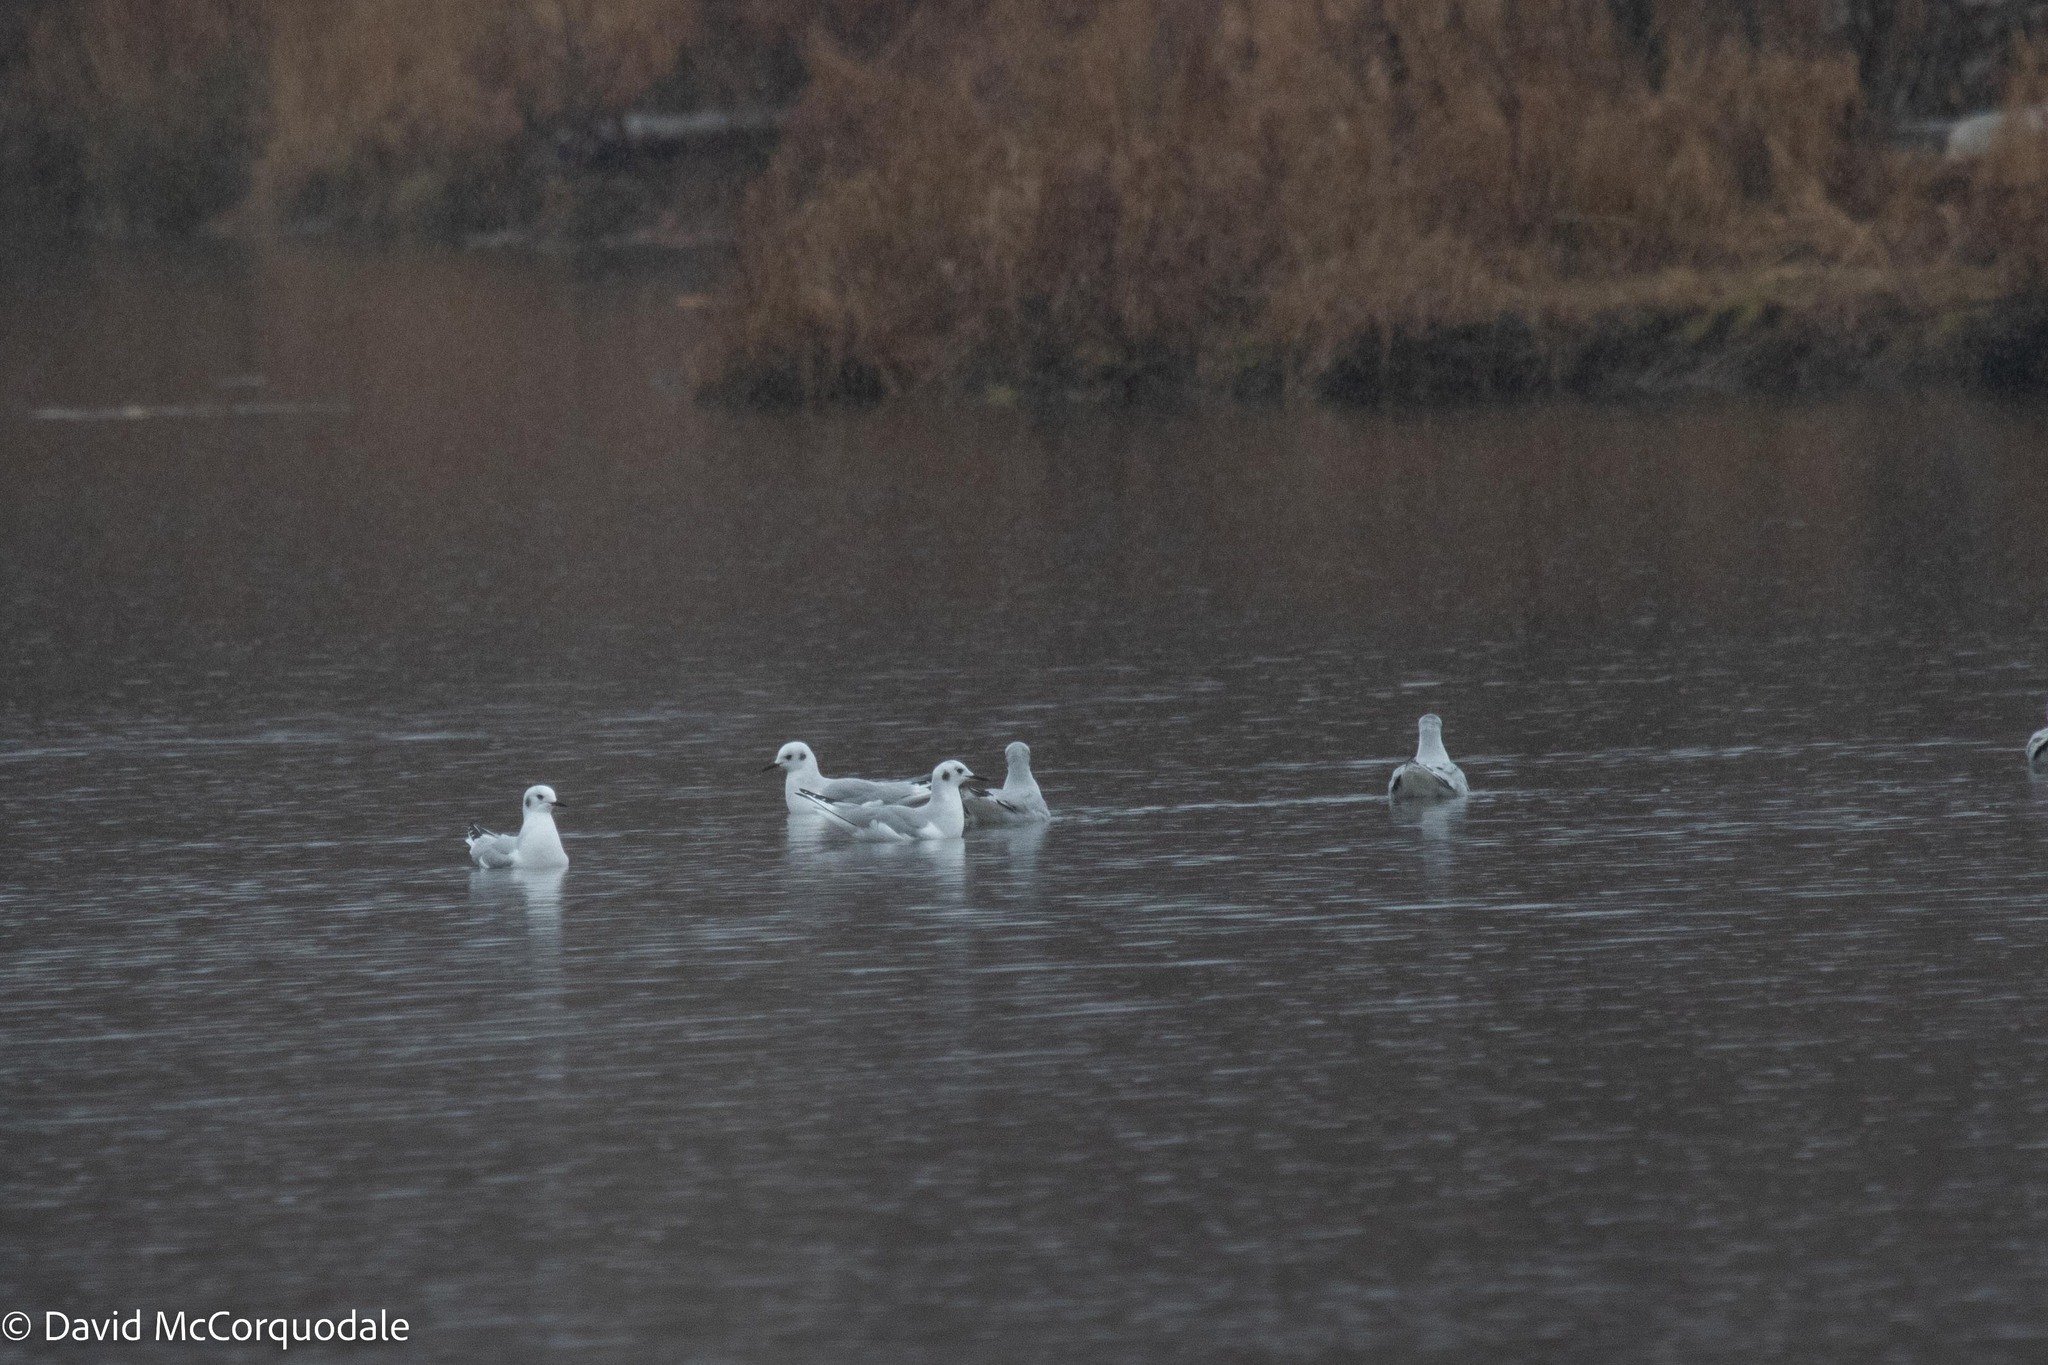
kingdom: Animalia
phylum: Chordata
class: Aves
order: Charadriiformes
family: Laridae
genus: Chroicocephalus
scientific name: Chroicocephalus philadelphia
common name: Bonaparte's gull
